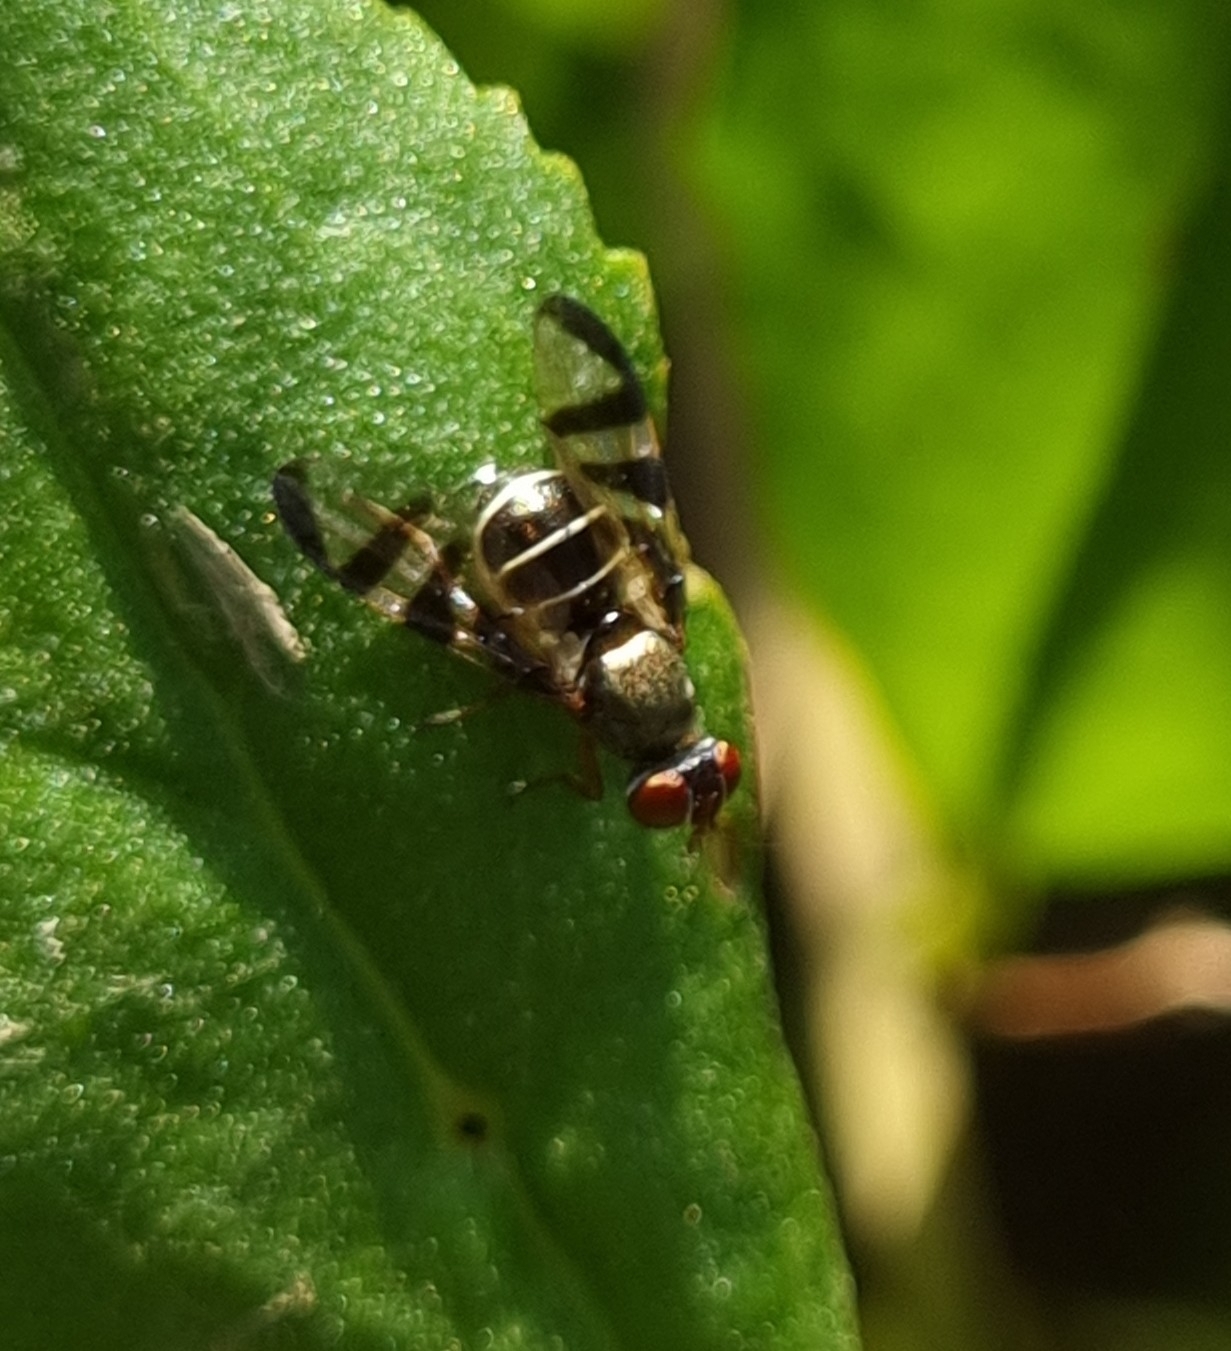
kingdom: Animalia
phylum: Arthropoda
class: Insecta
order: Diptera
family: Platystomatidae
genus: Rivellia
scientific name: Rivellia
